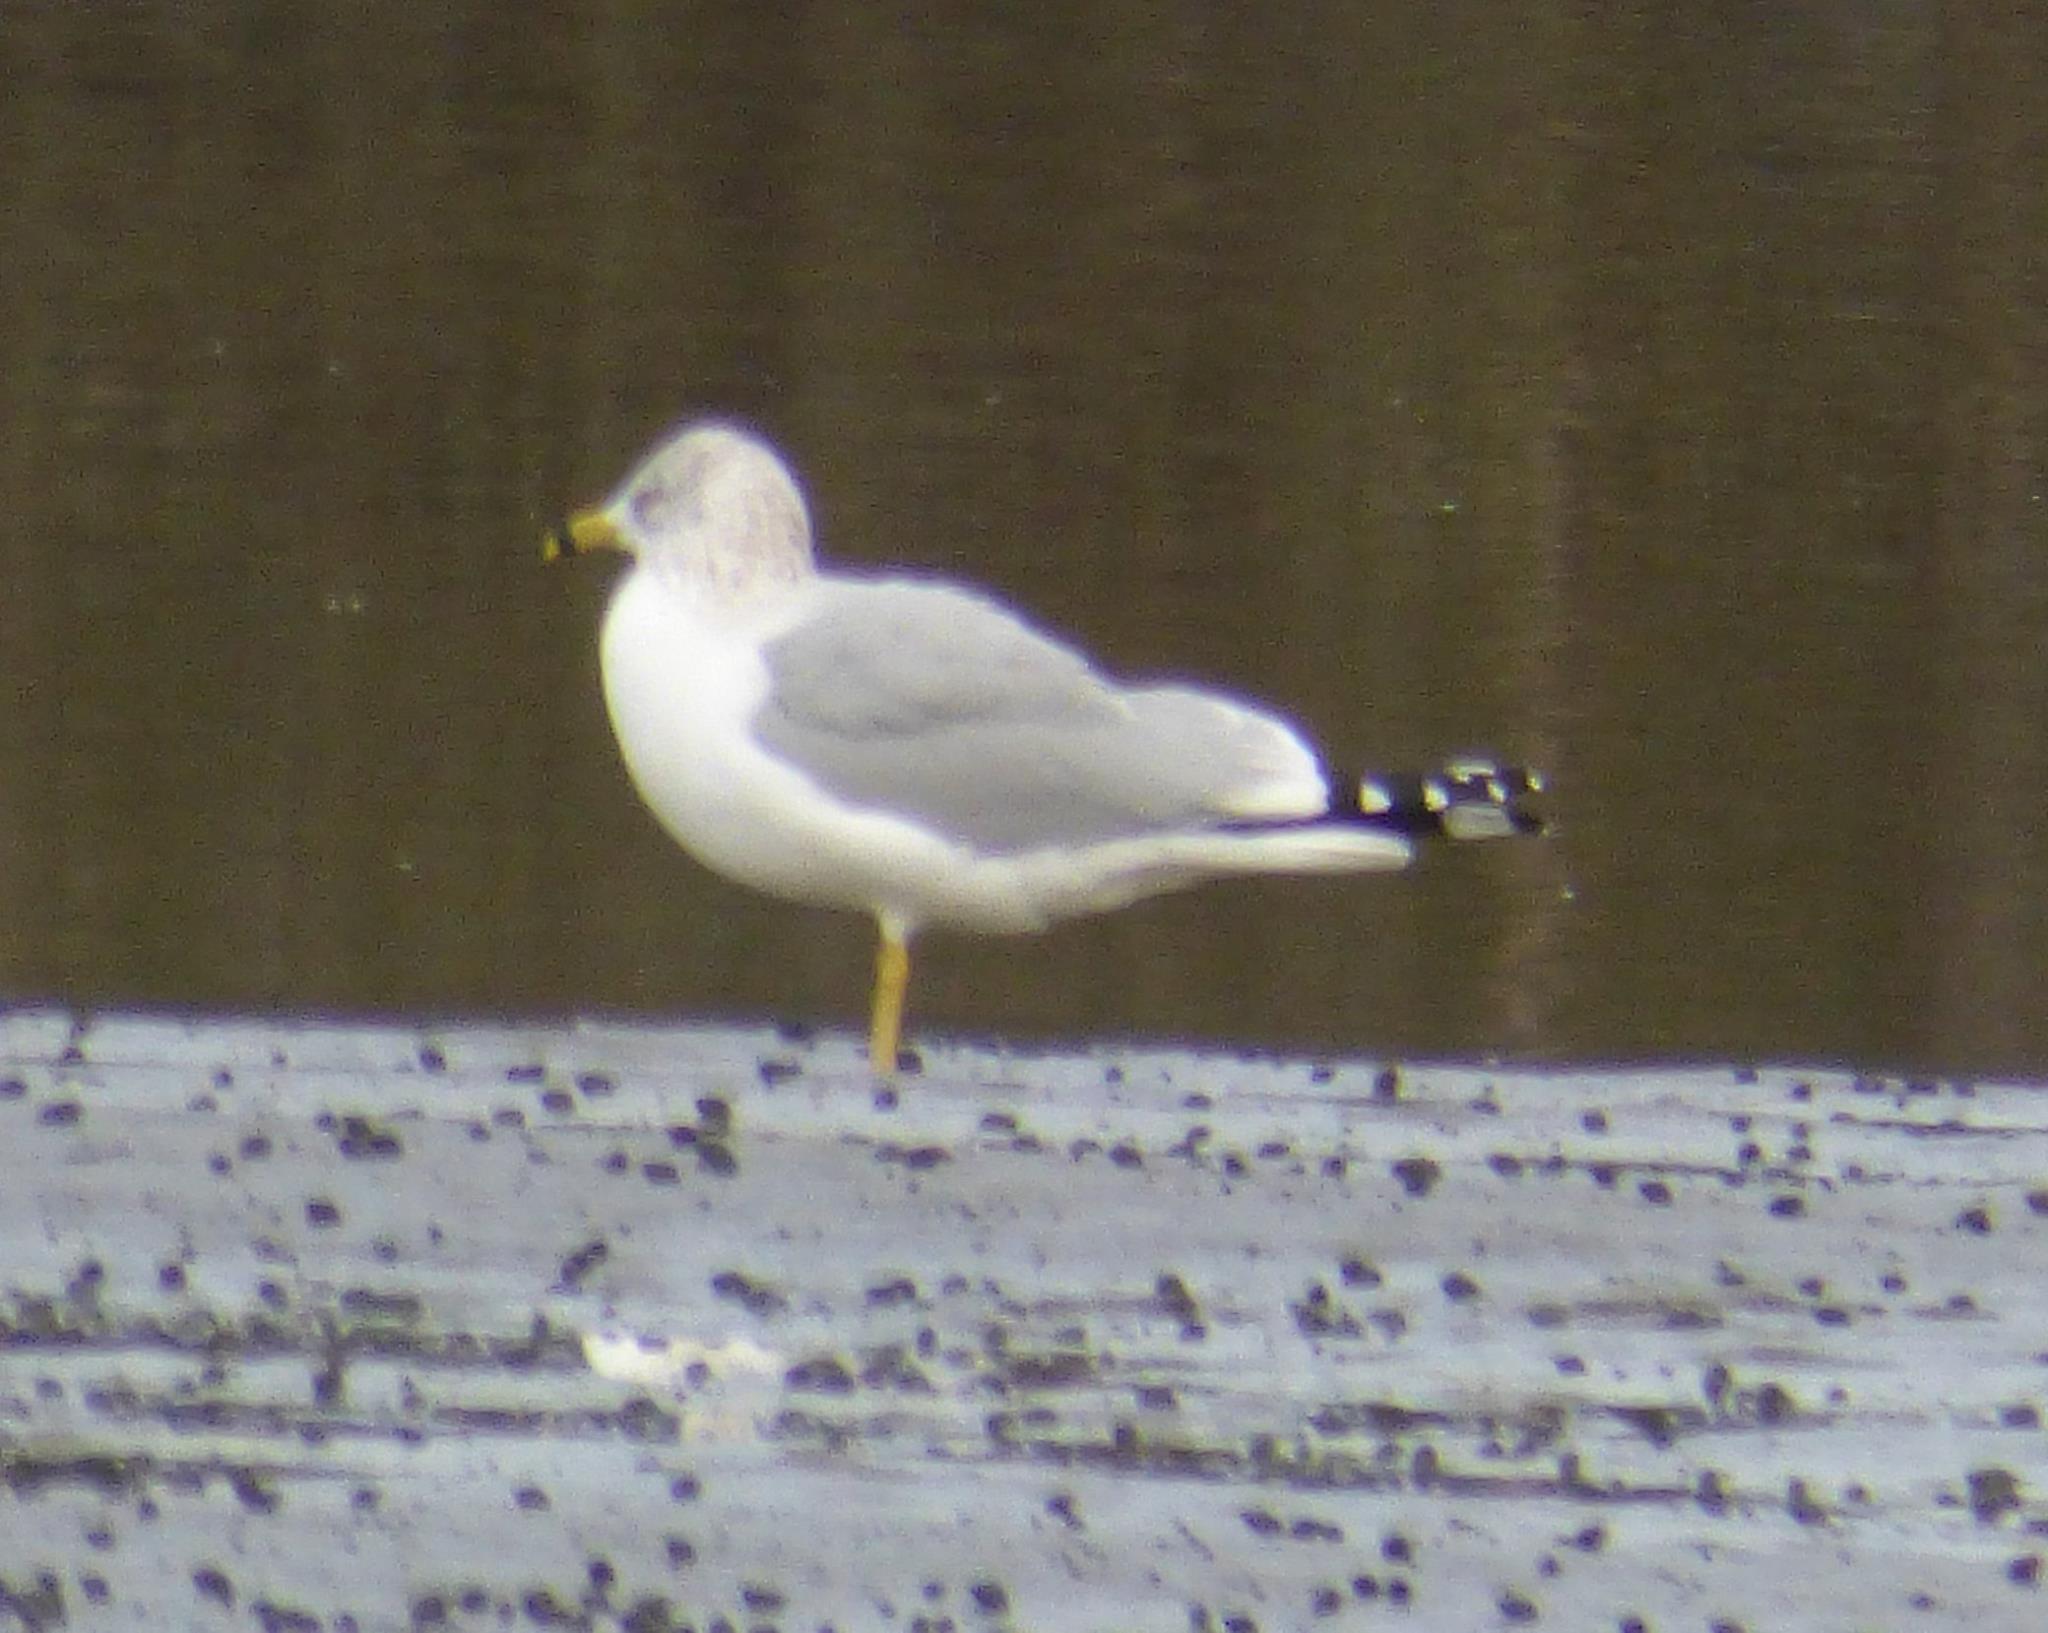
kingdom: Animalia
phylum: Chordata
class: Aves
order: Charadriiformes
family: Laridae
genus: Larus
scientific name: Larus delawarensis
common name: Ring-billed gull
